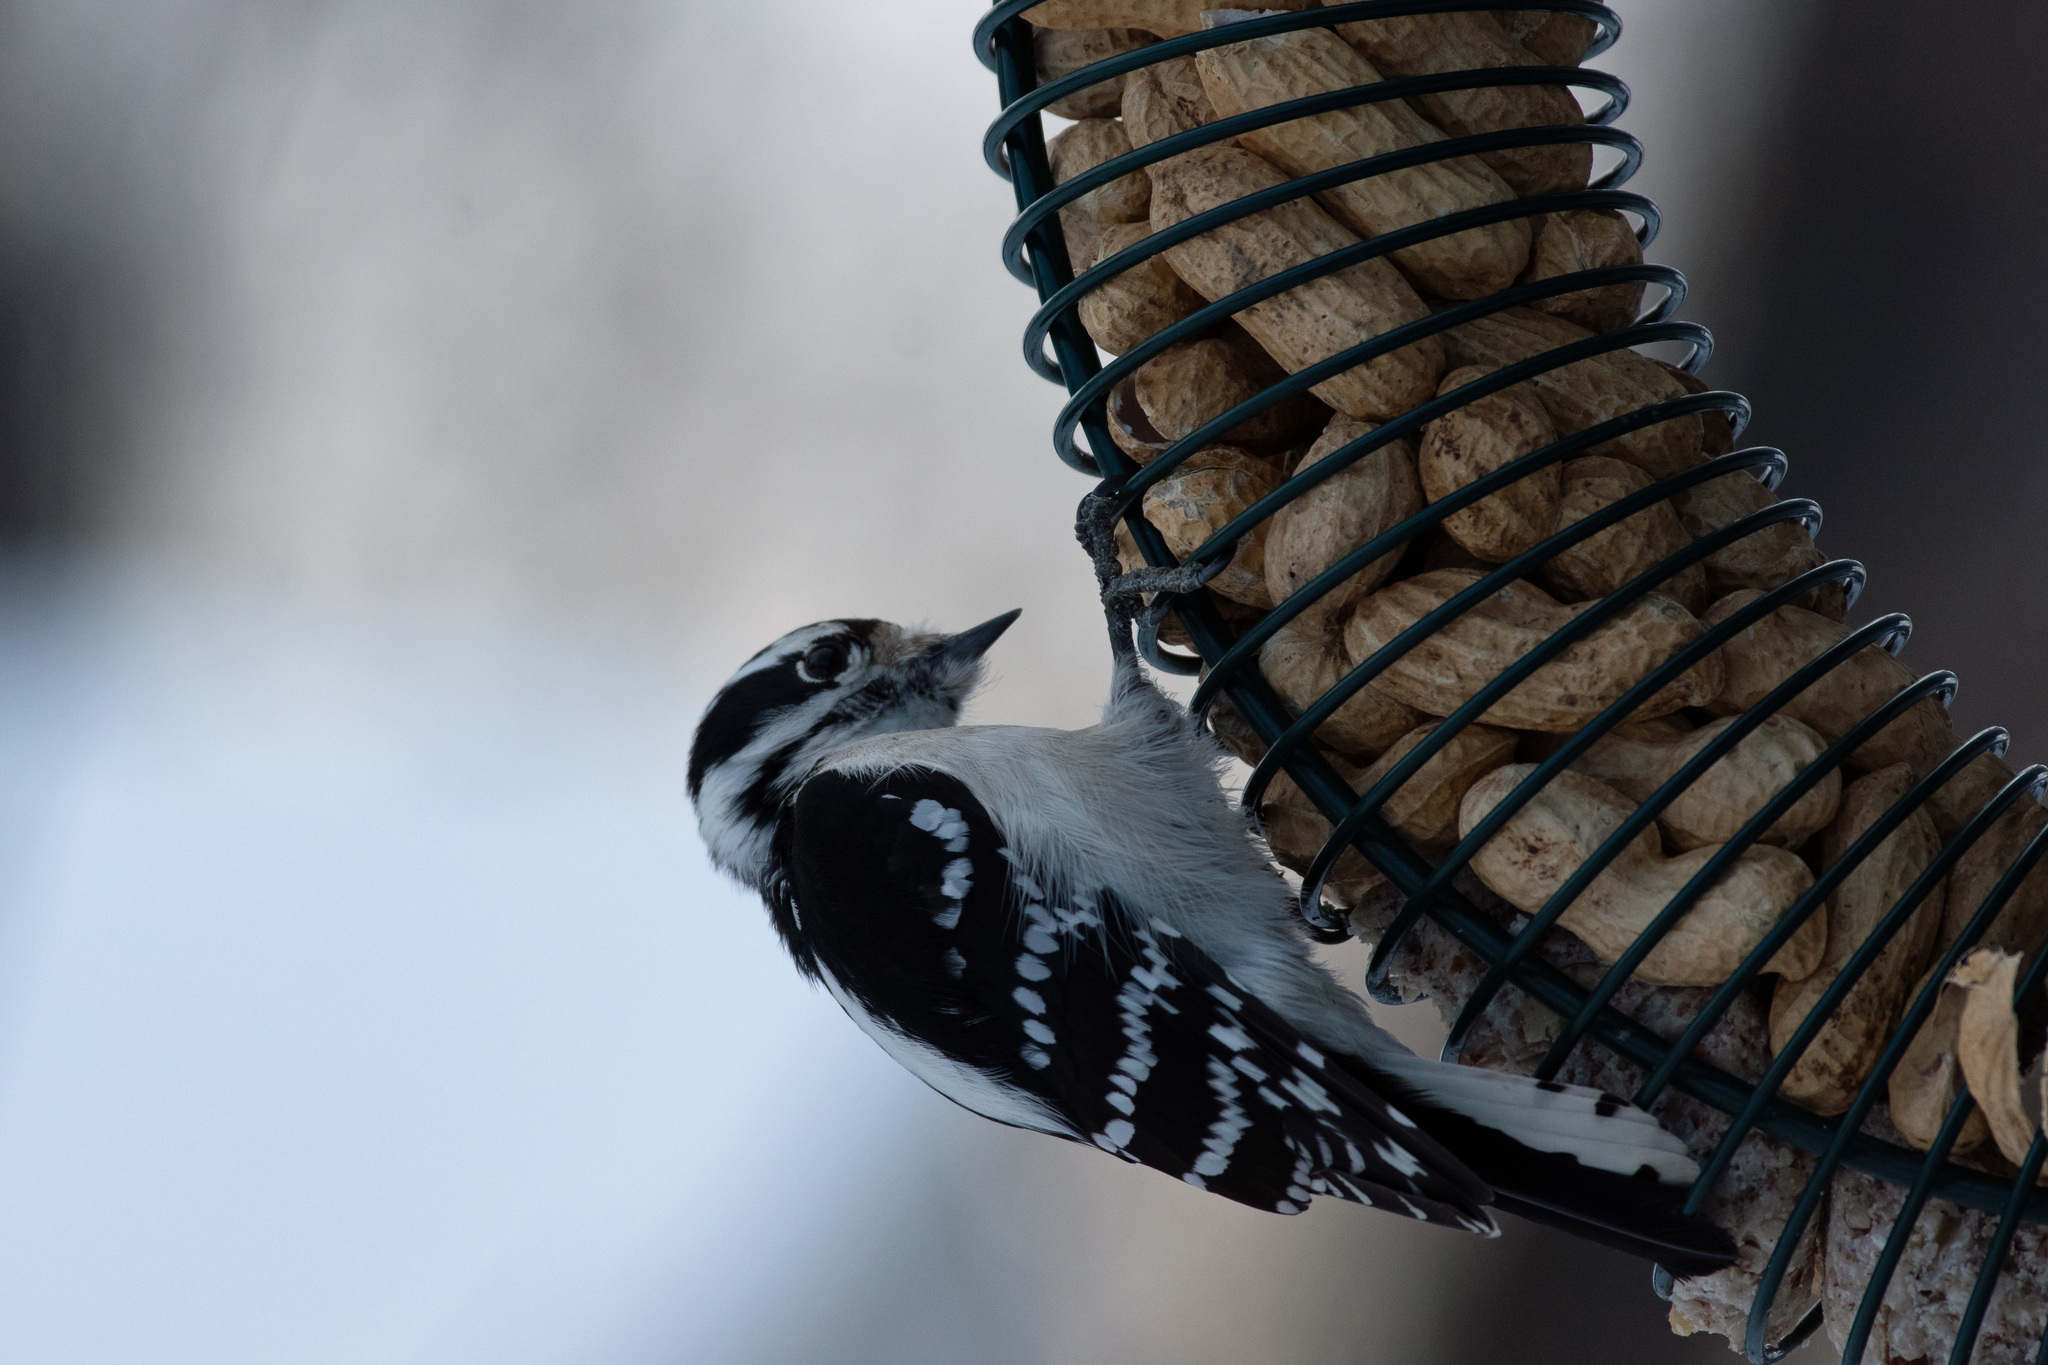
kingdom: Animalia
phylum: Chordata
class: Aves
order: Piciformes
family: Picidae
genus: Dryobates
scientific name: Dryobates pubescens
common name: Downy woodpecker
